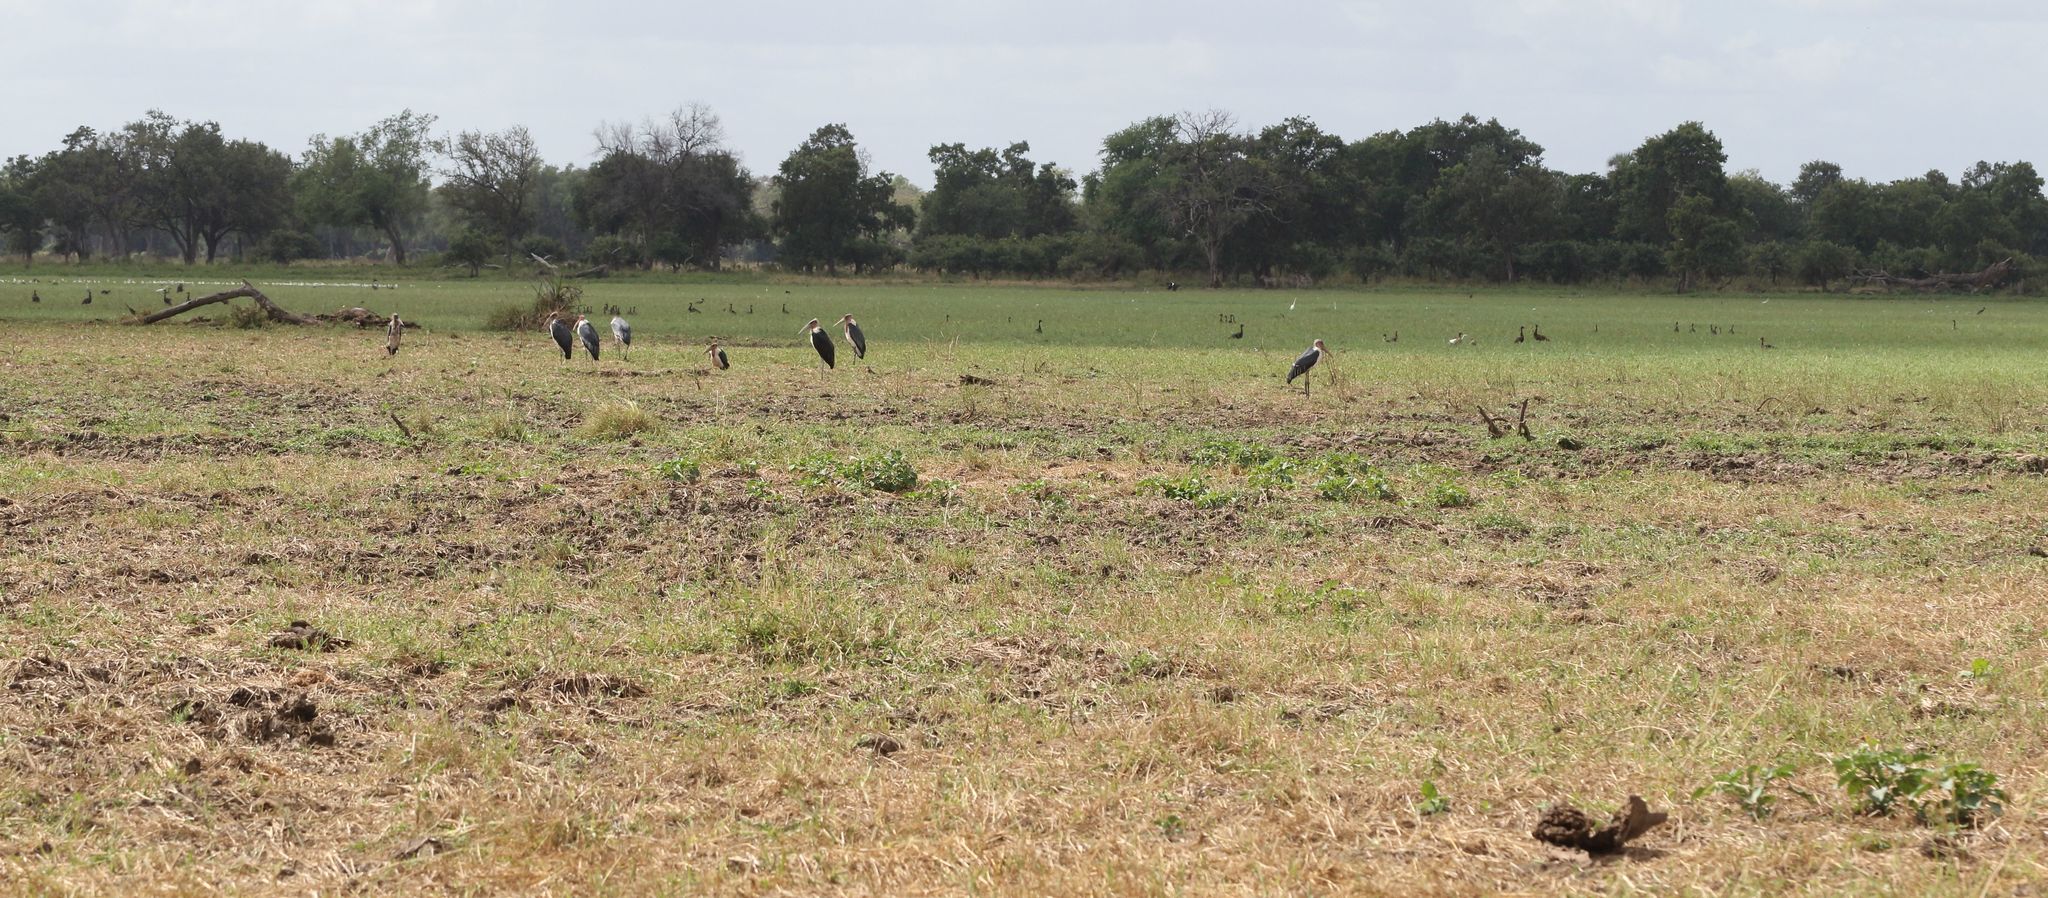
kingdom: Animalia
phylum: Chordata
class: Aves
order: Ciconiiformes
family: Ciconiidae
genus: Leptoptilos
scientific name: Leptoptilos crumenifer
